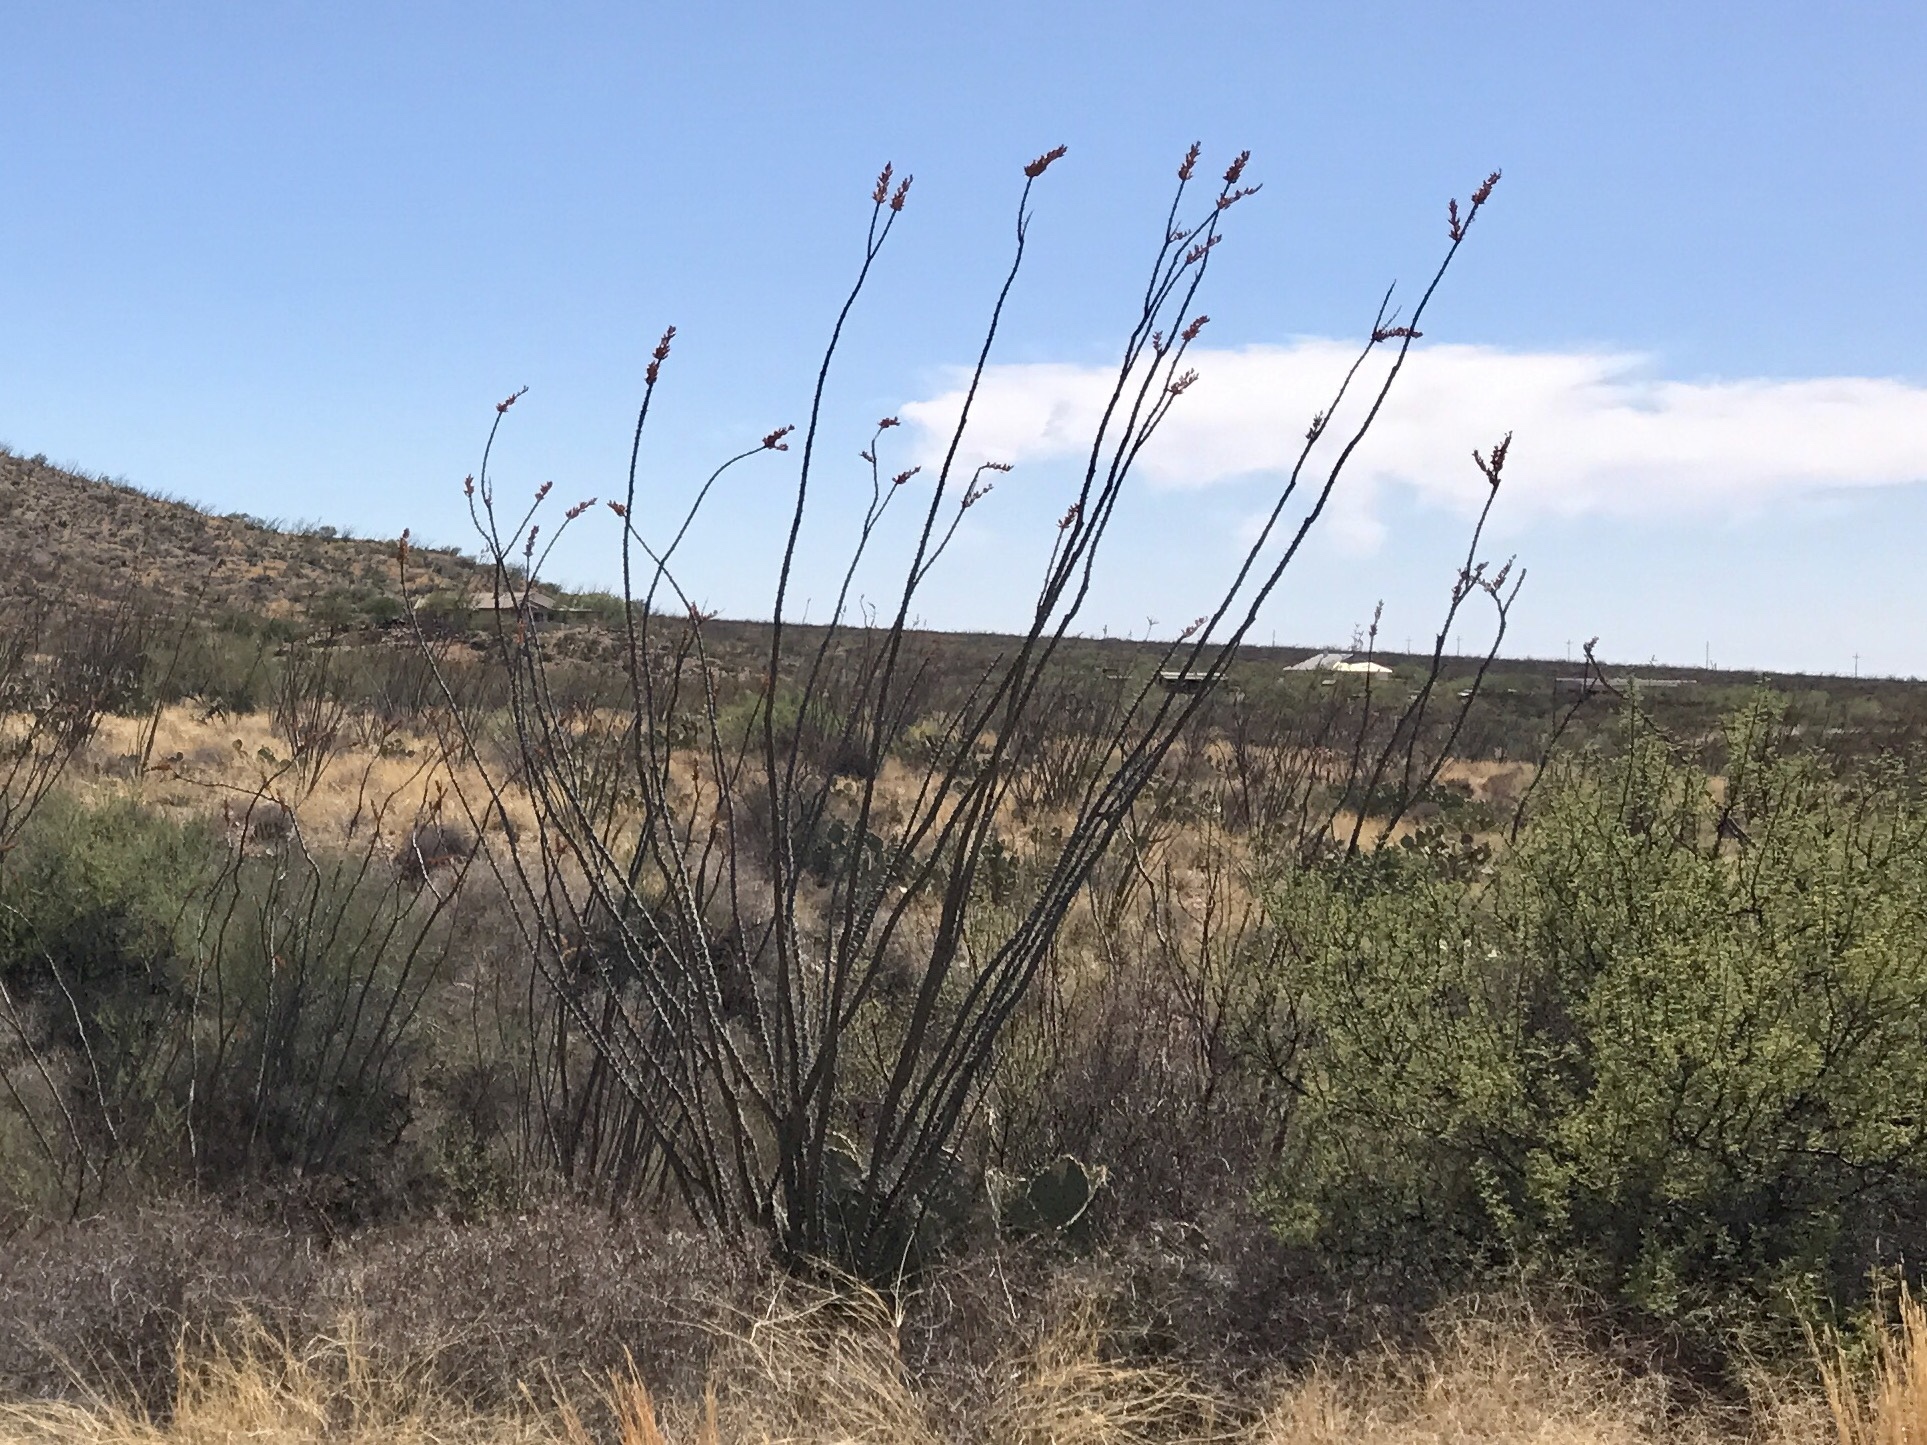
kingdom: Plantae
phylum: Tracheophyta
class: Magnoliopsida
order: Ericales
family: Fouquieriaceae
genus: Fouquieria
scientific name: Fouquieria splendens
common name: Vine-cactus
